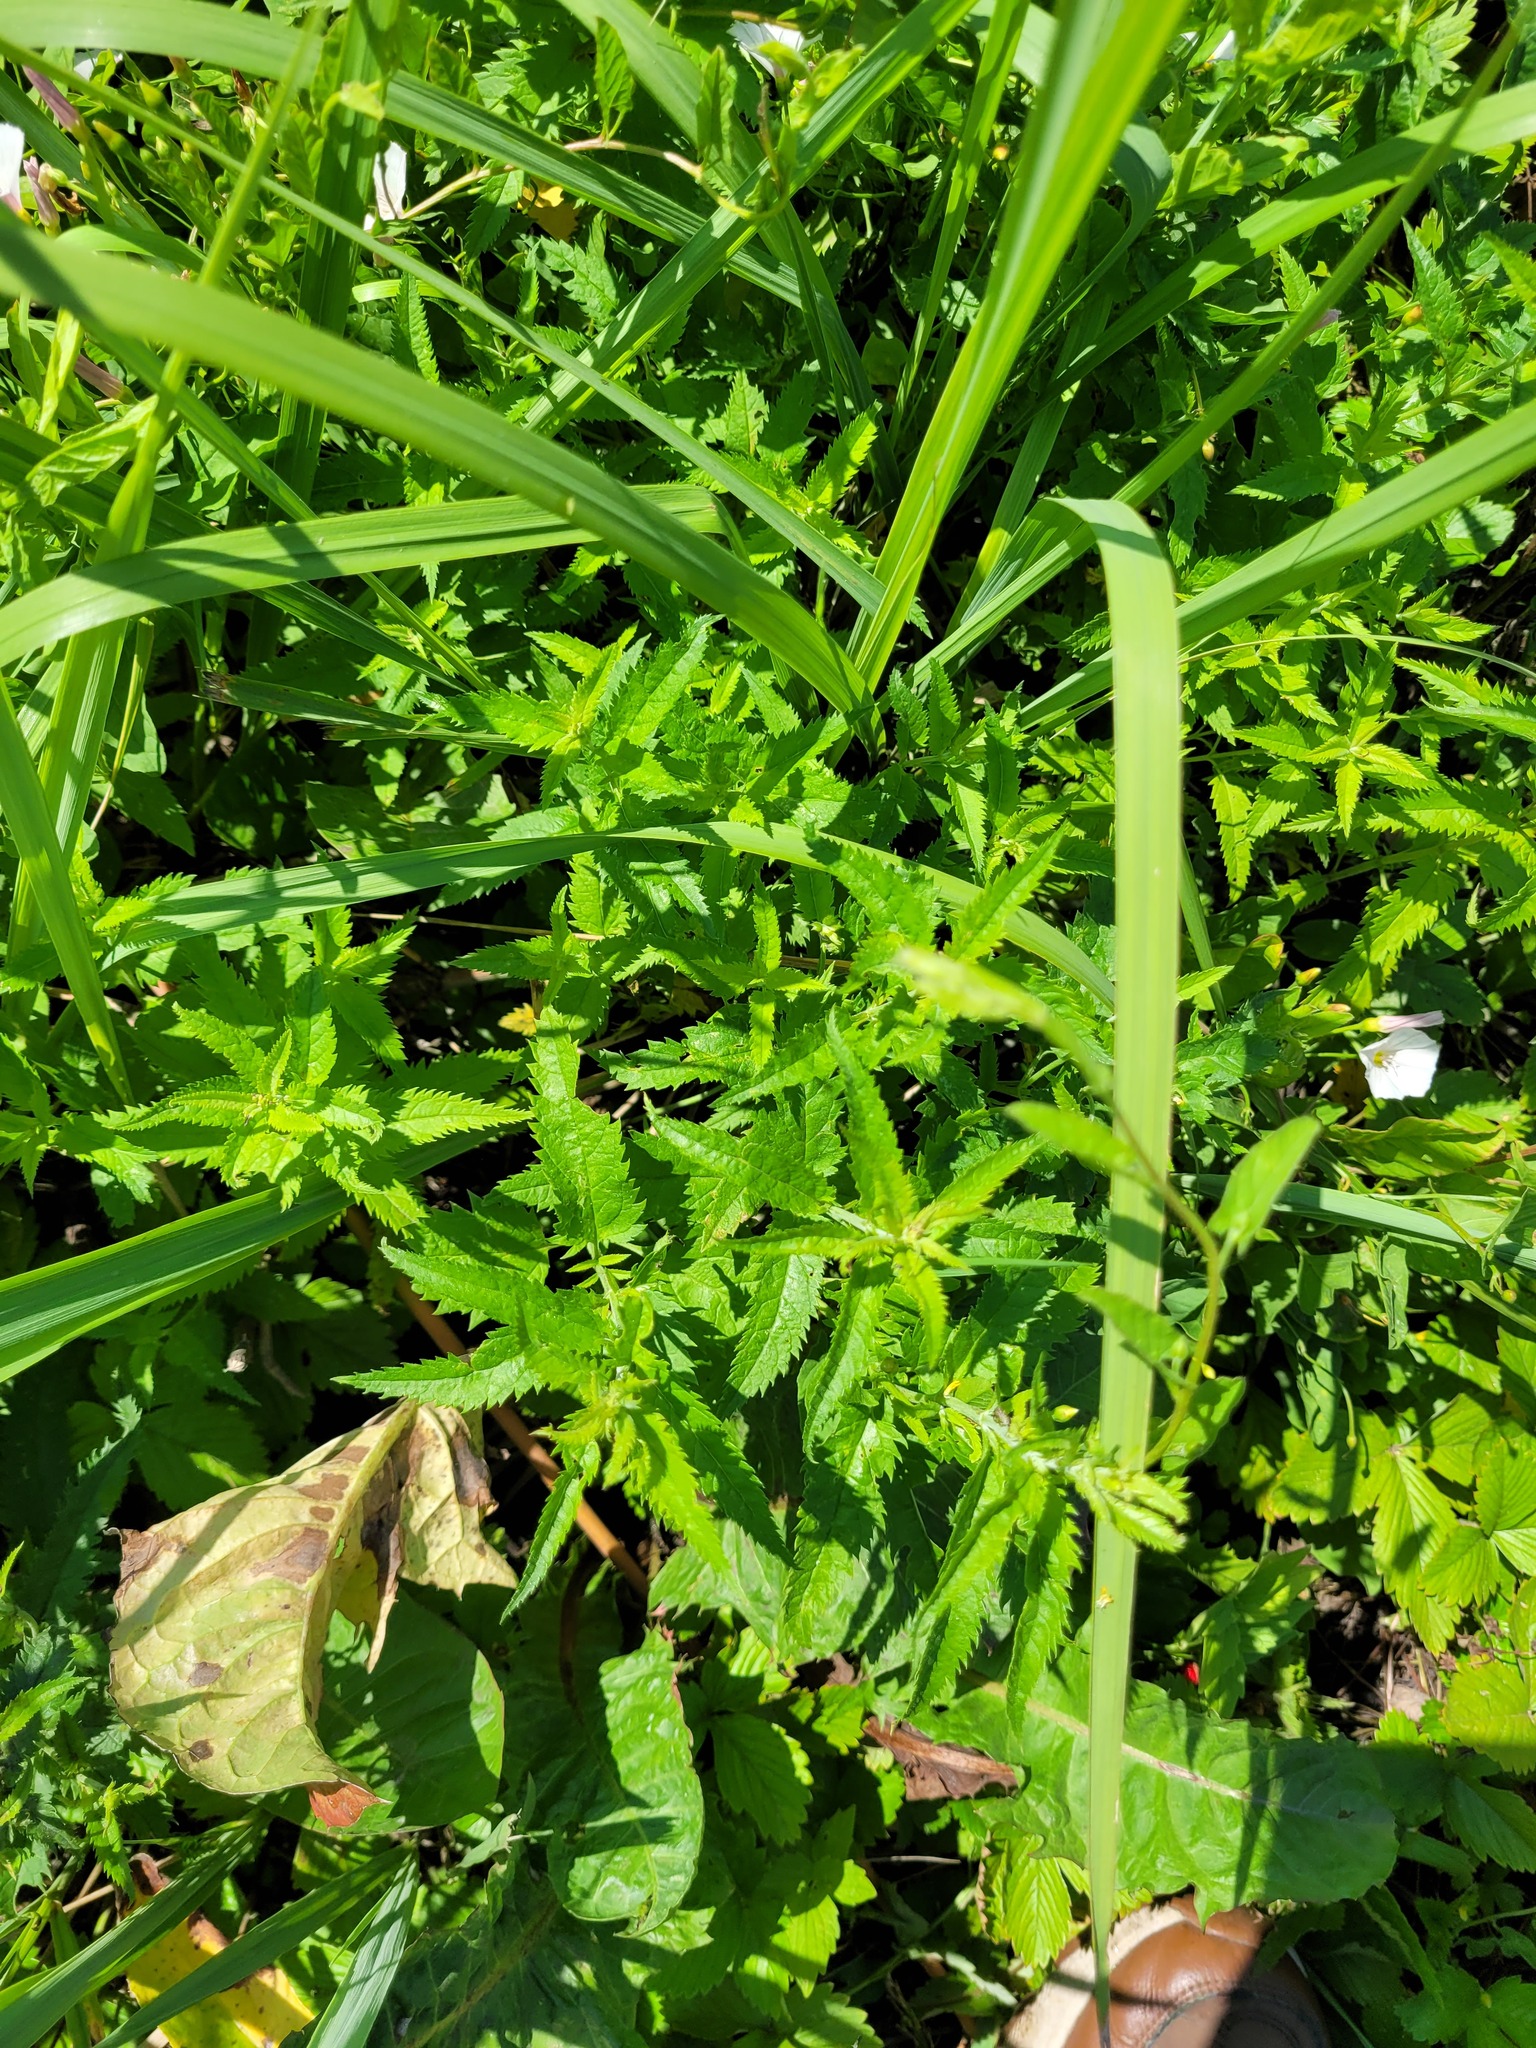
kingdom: Plantae
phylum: Tracheophyta
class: Magnoliopsida
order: Lamiales
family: Plantaginaceae
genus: Veronica
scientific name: Veronica longifolia
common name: Garden speedwell
